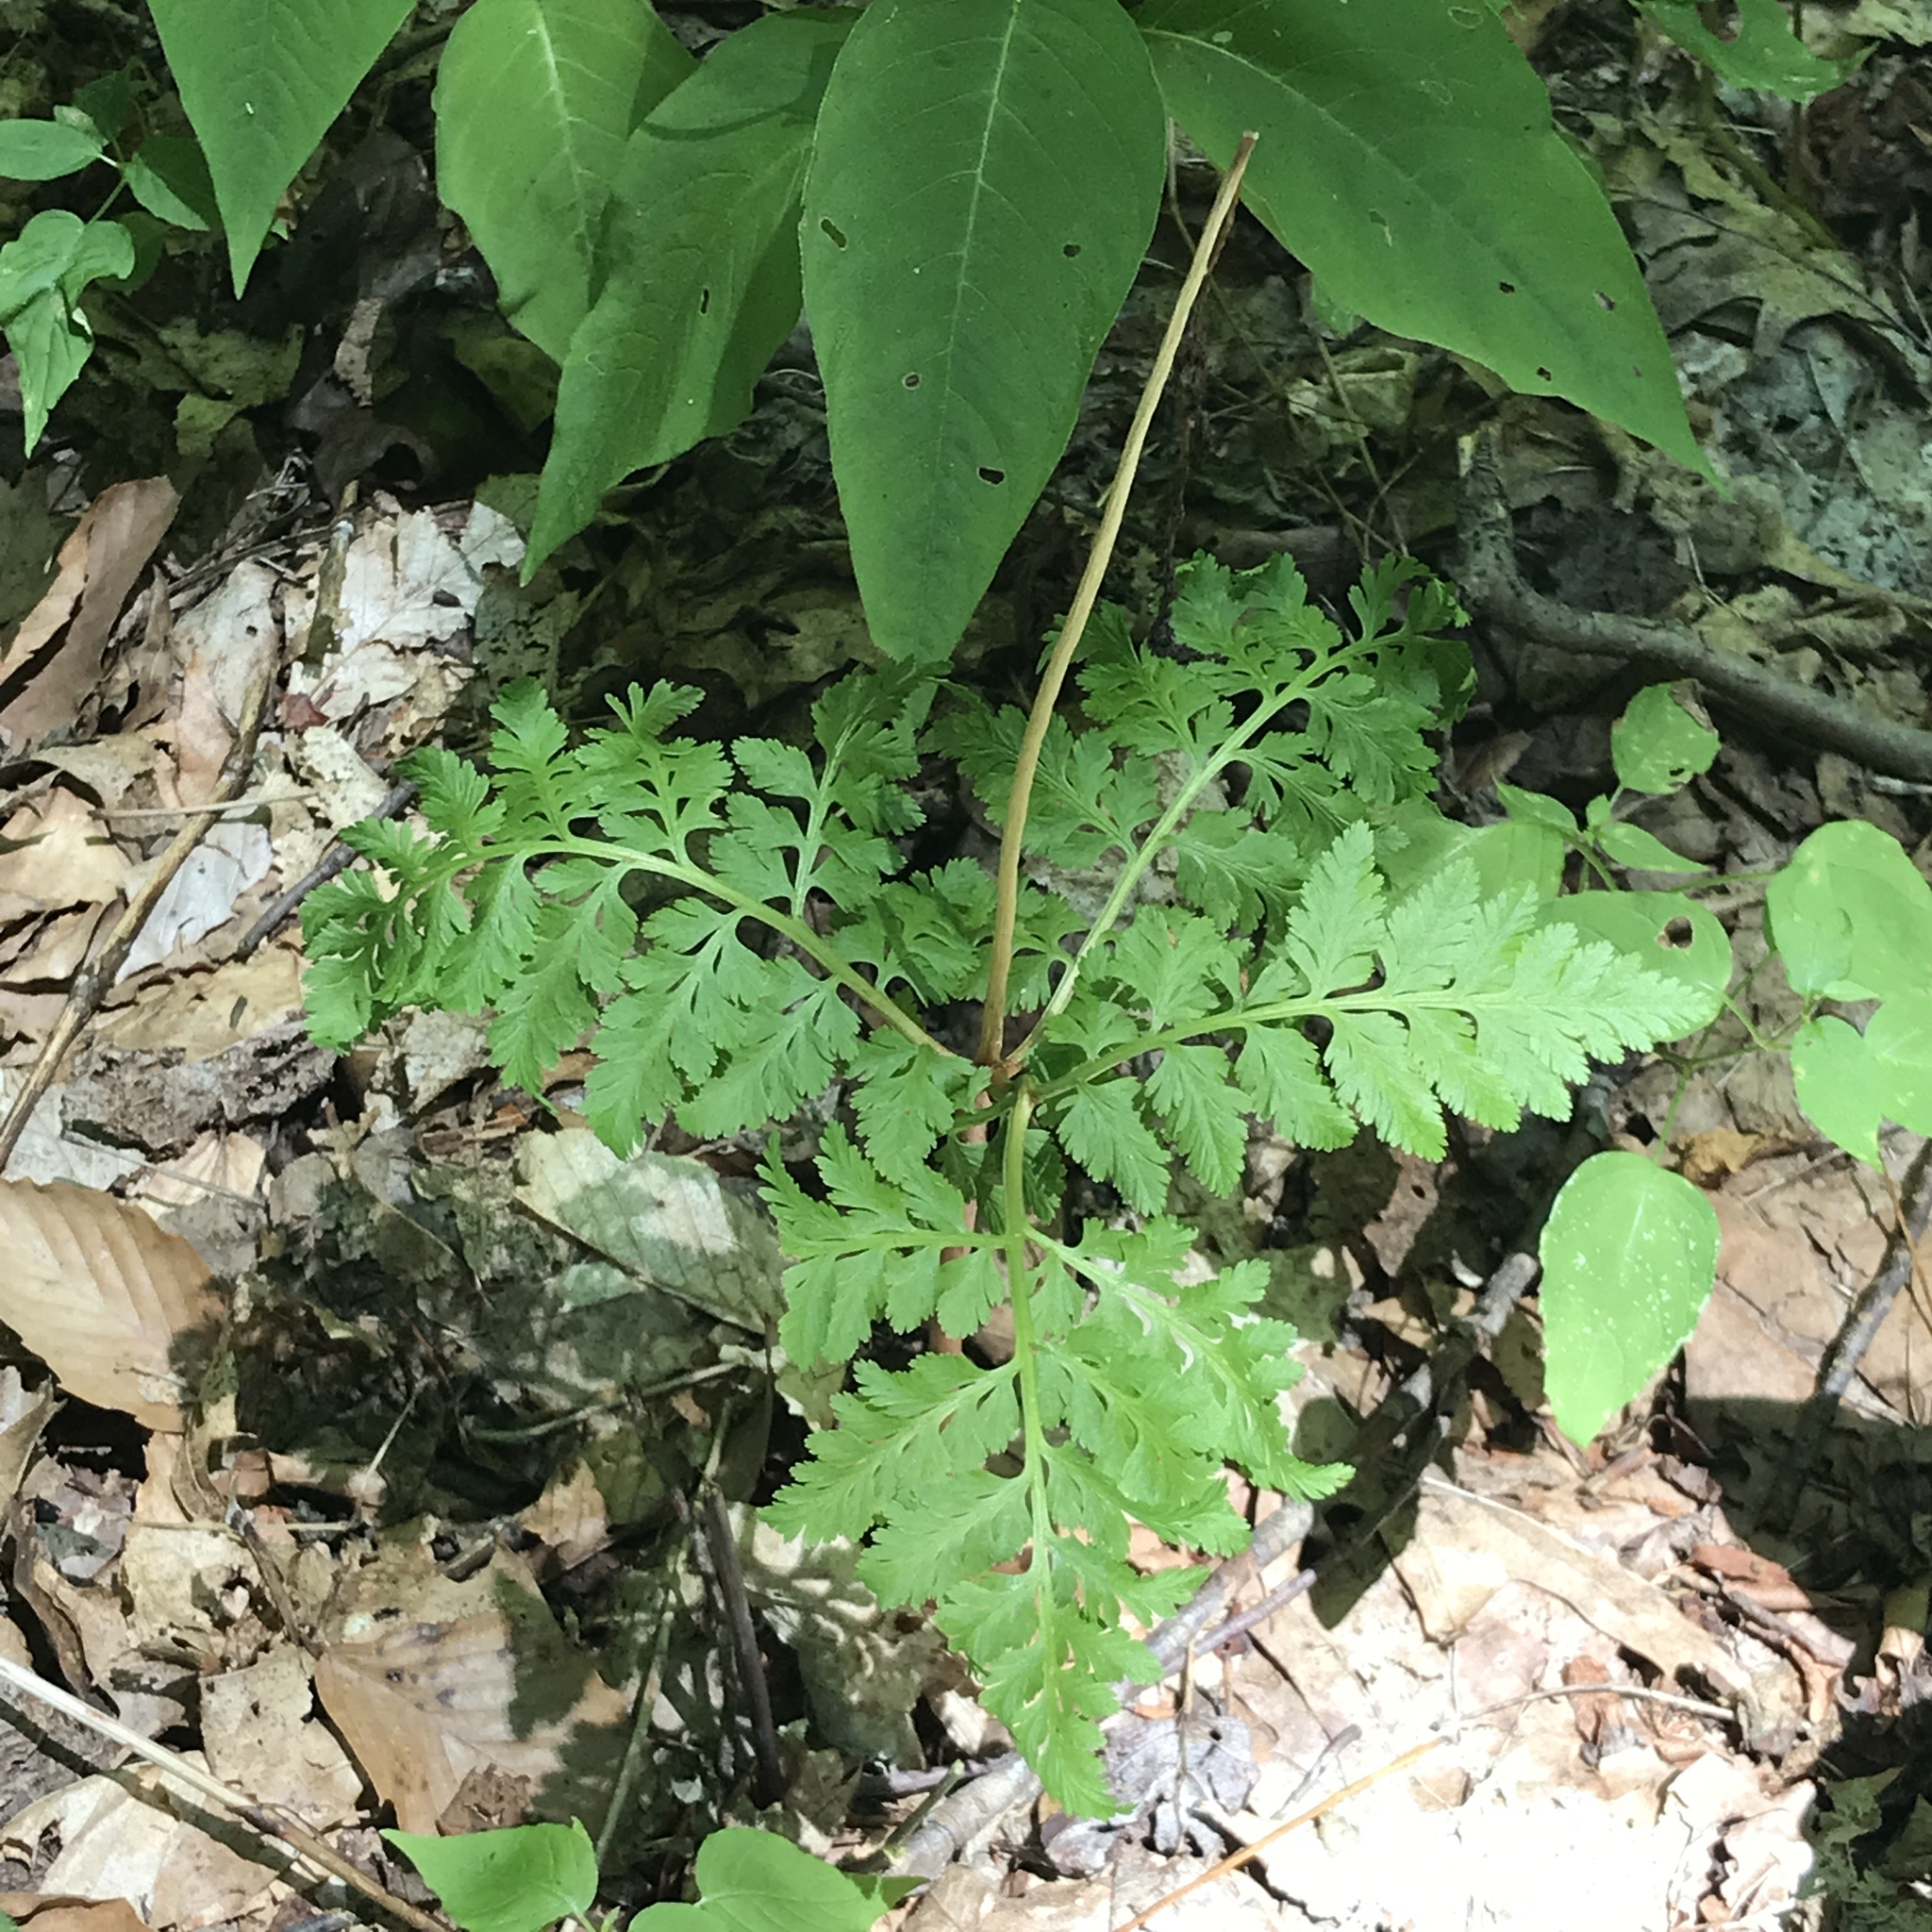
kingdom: Plantae
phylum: Tracheophyta
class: Polypodiopsida
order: Ophioglossales
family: Ophioglossaceae
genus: Botrypus
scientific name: Botrypus virginianus
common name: Common grapefern
